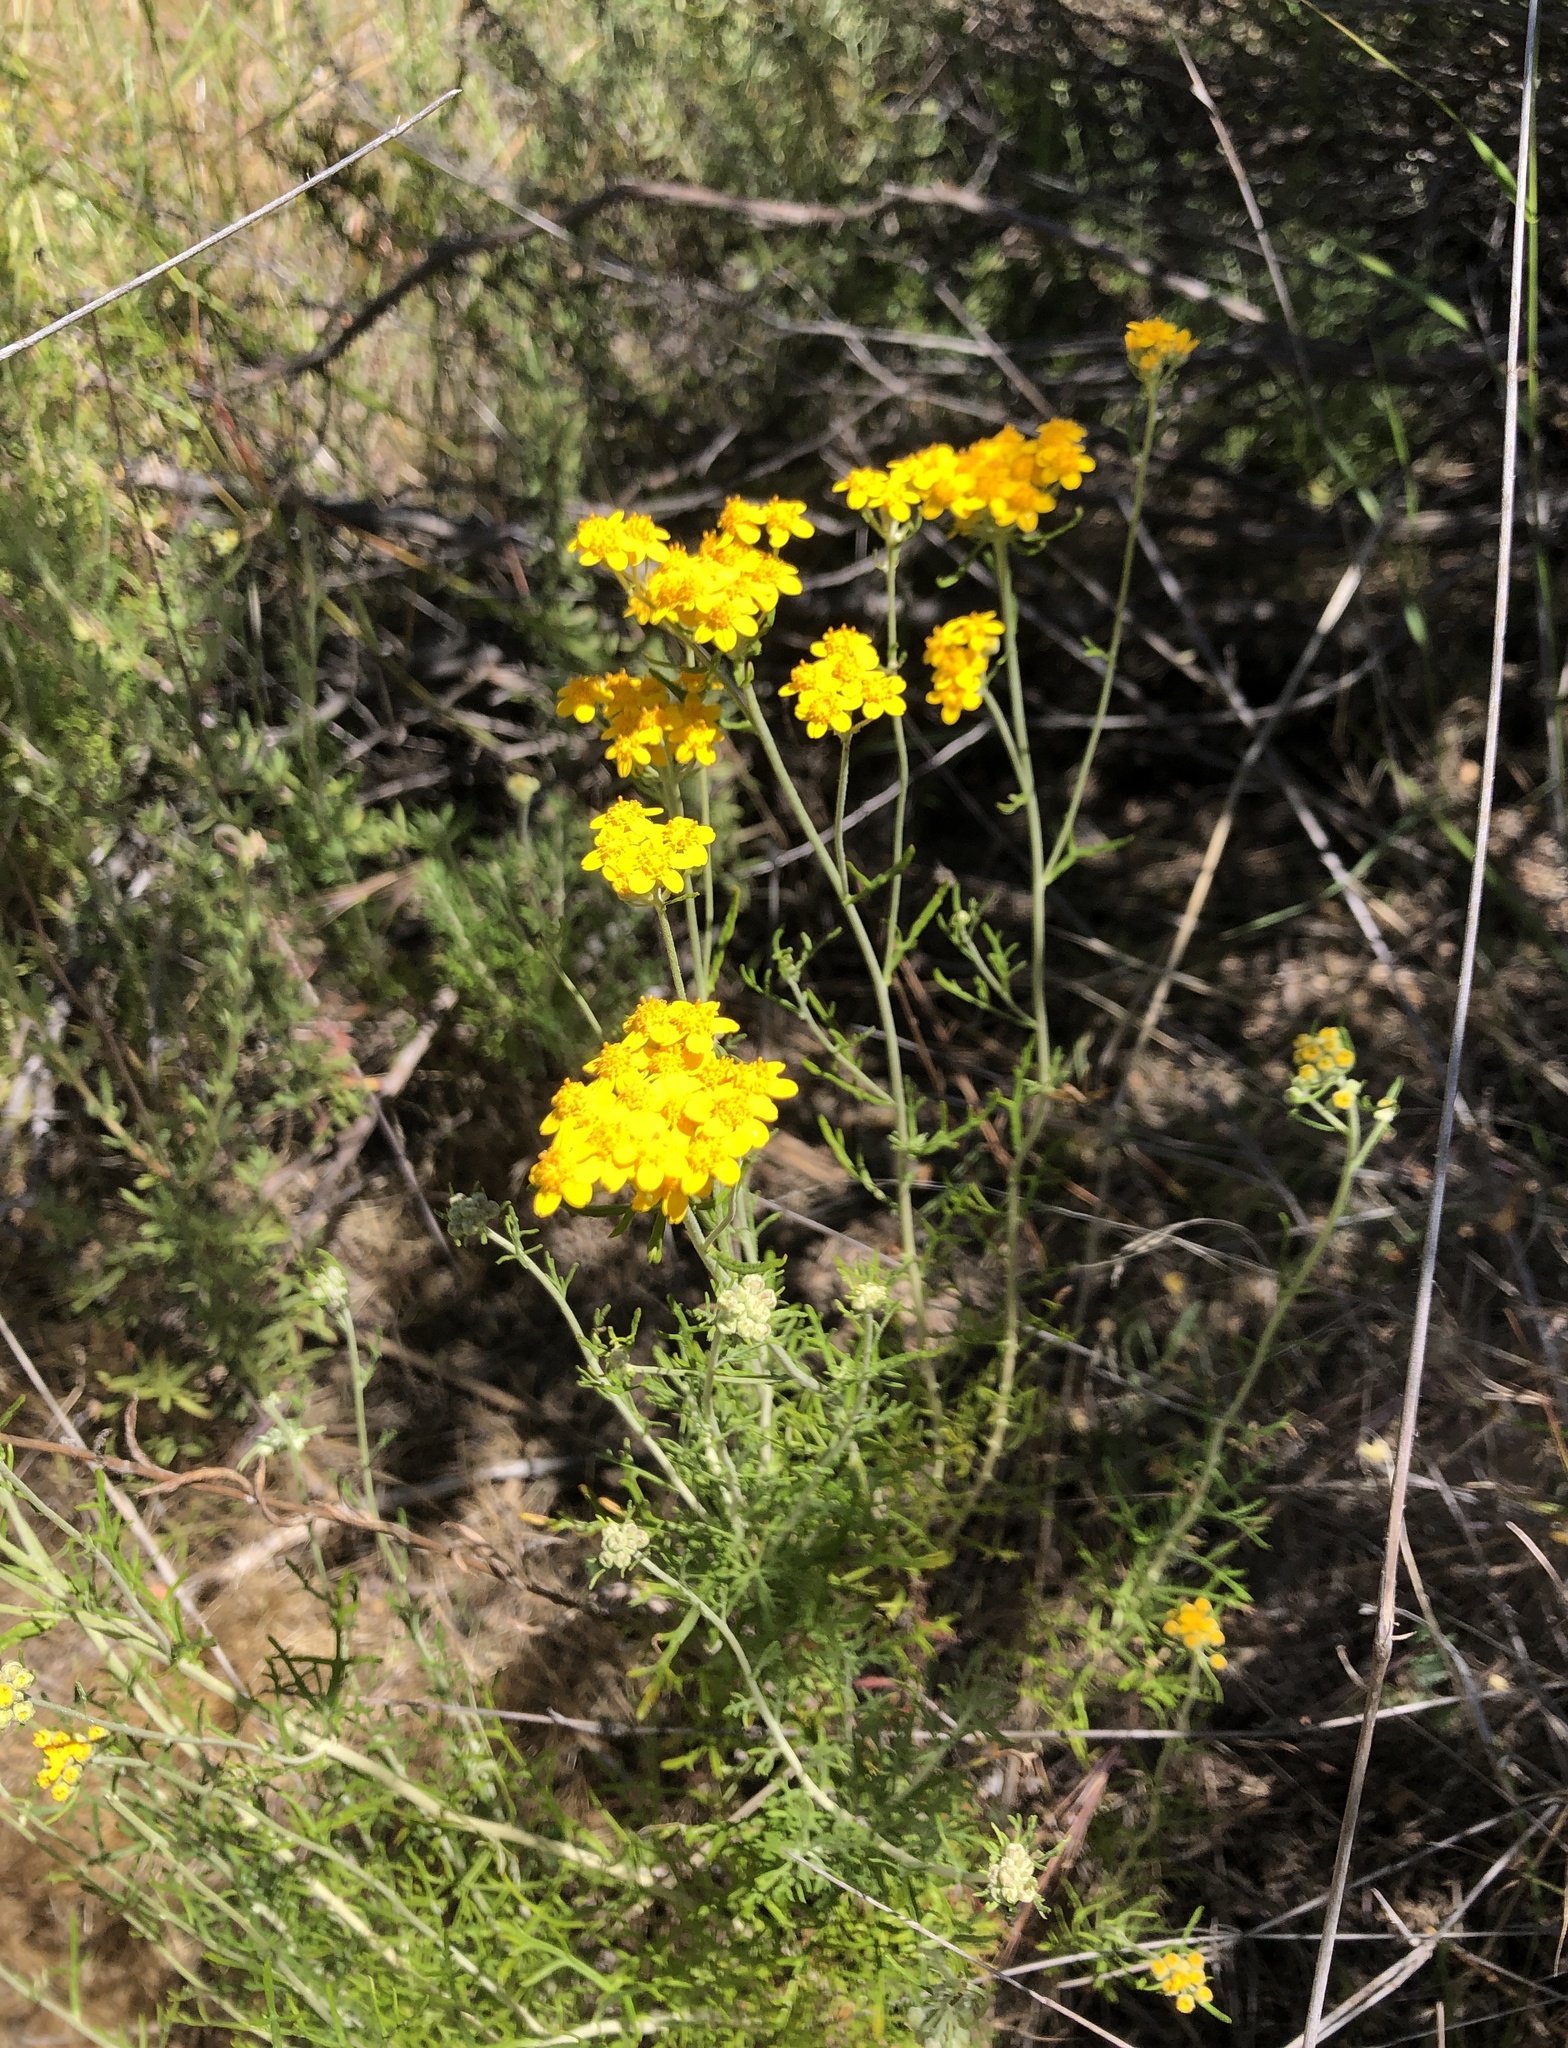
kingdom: Plantae
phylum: Tracheophyta
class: Magnoliopsida
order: Asterales
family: Asteraceae
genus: Eriophyllum
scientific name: Eriophyllum confertiflorum
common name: Golden-yarrow
